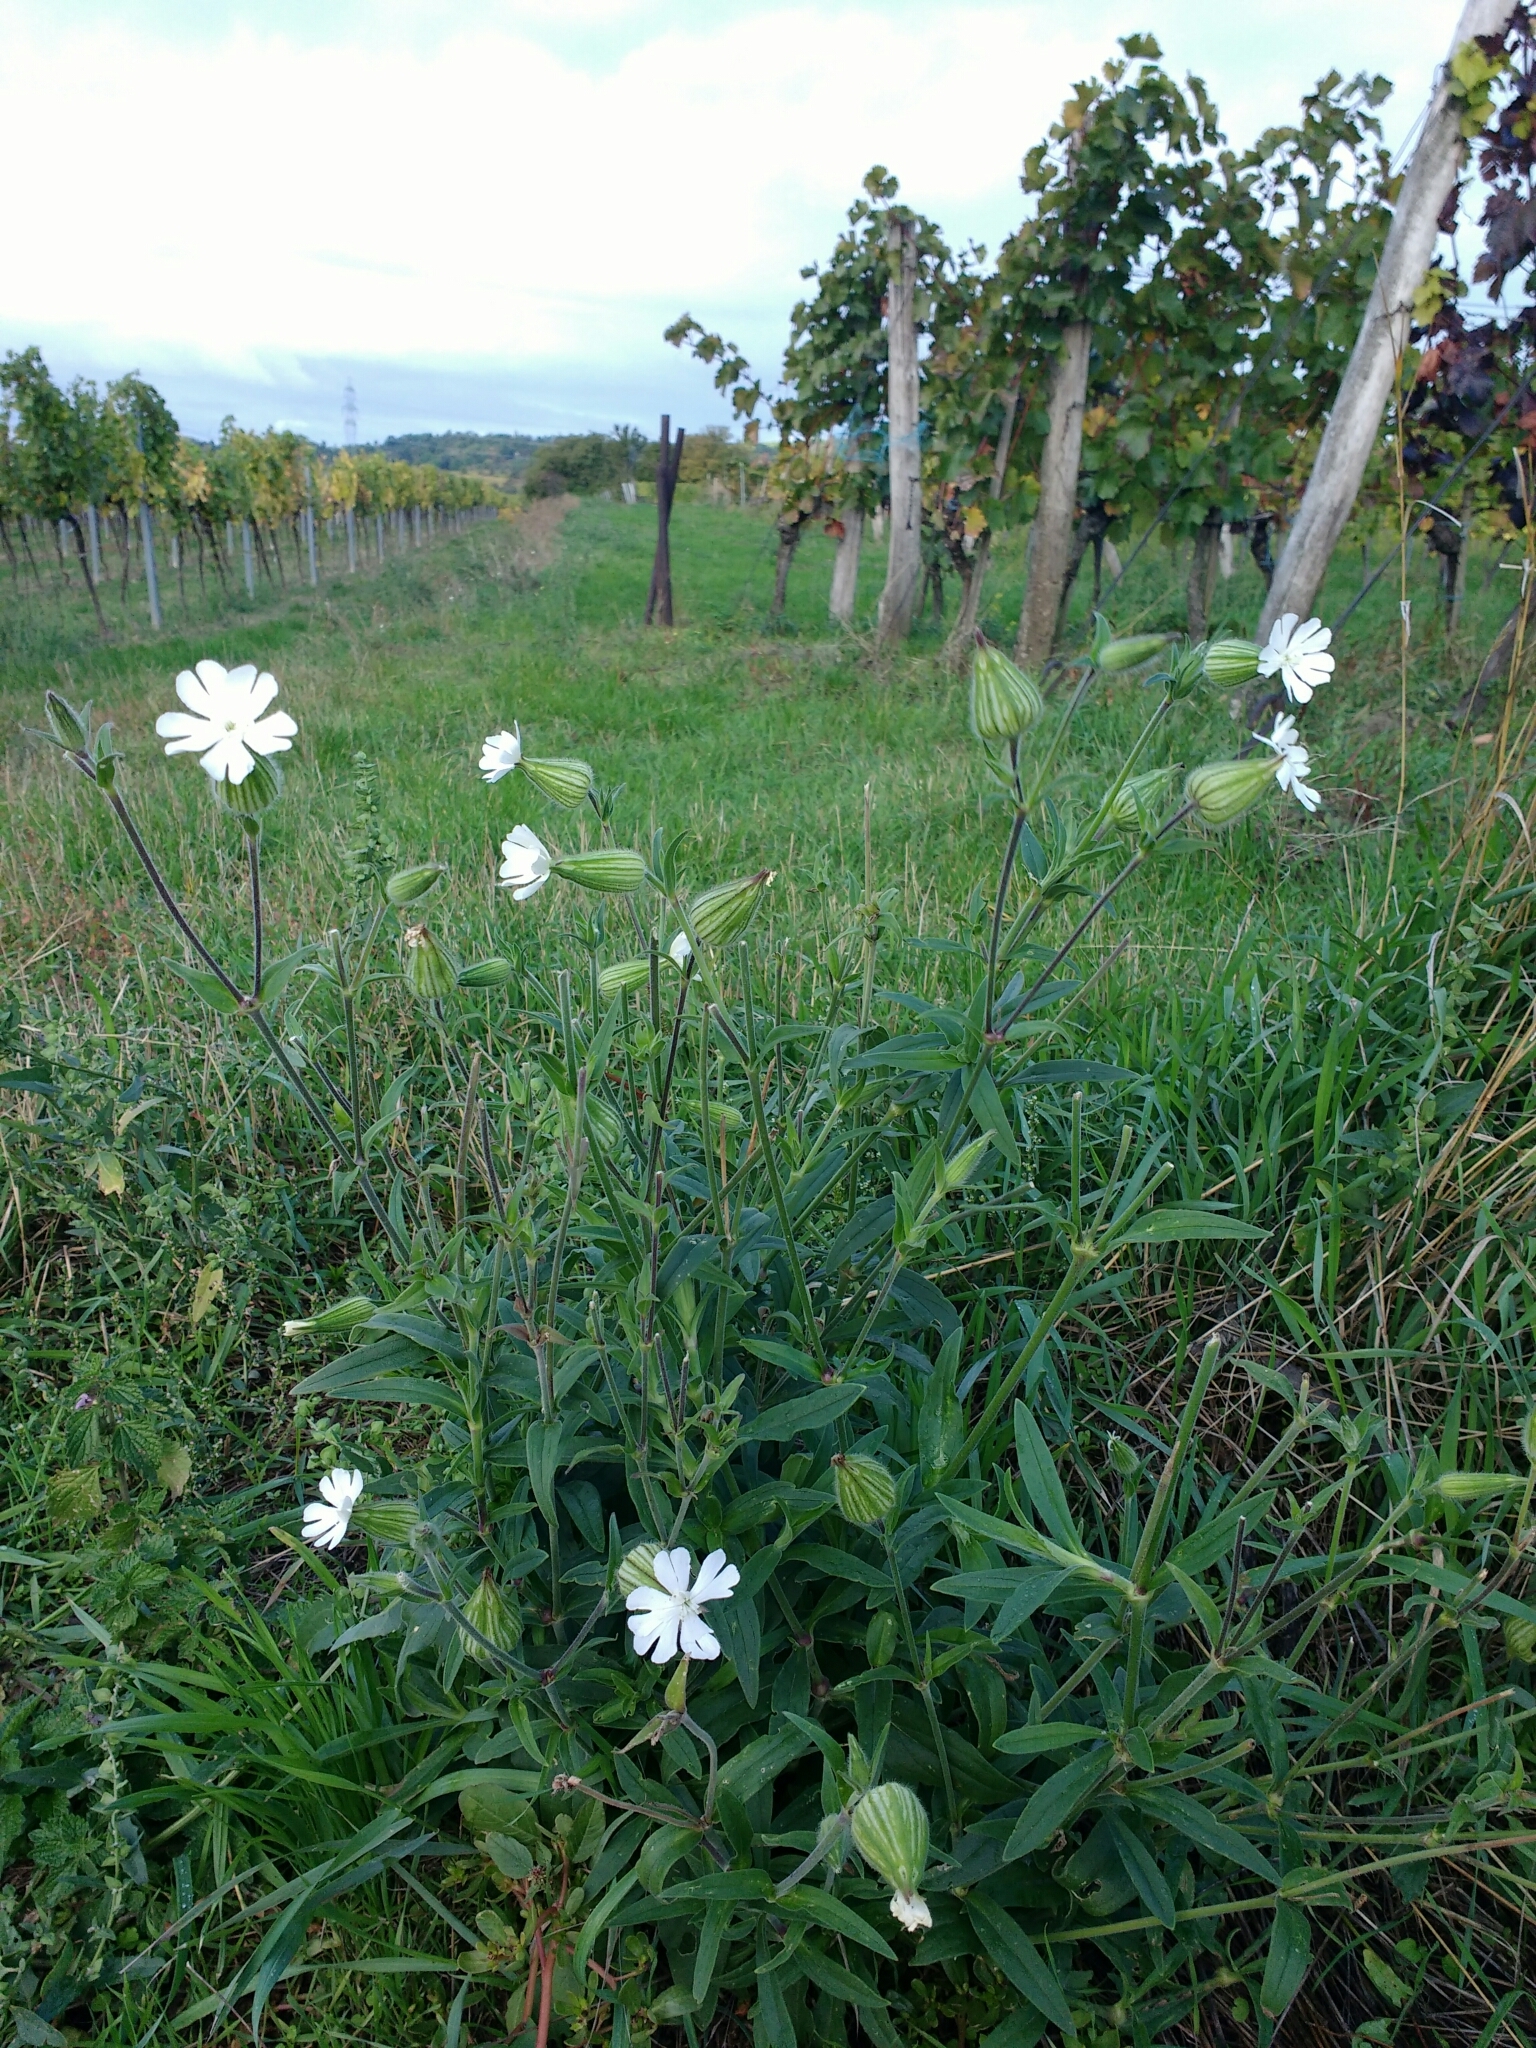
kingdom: Plantae
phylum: Tracheophyta
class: Magnoliopsida
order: Caryophyllales
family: Caryophyllaceae
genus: Silene
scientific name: Silene latifolia
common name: White campion
